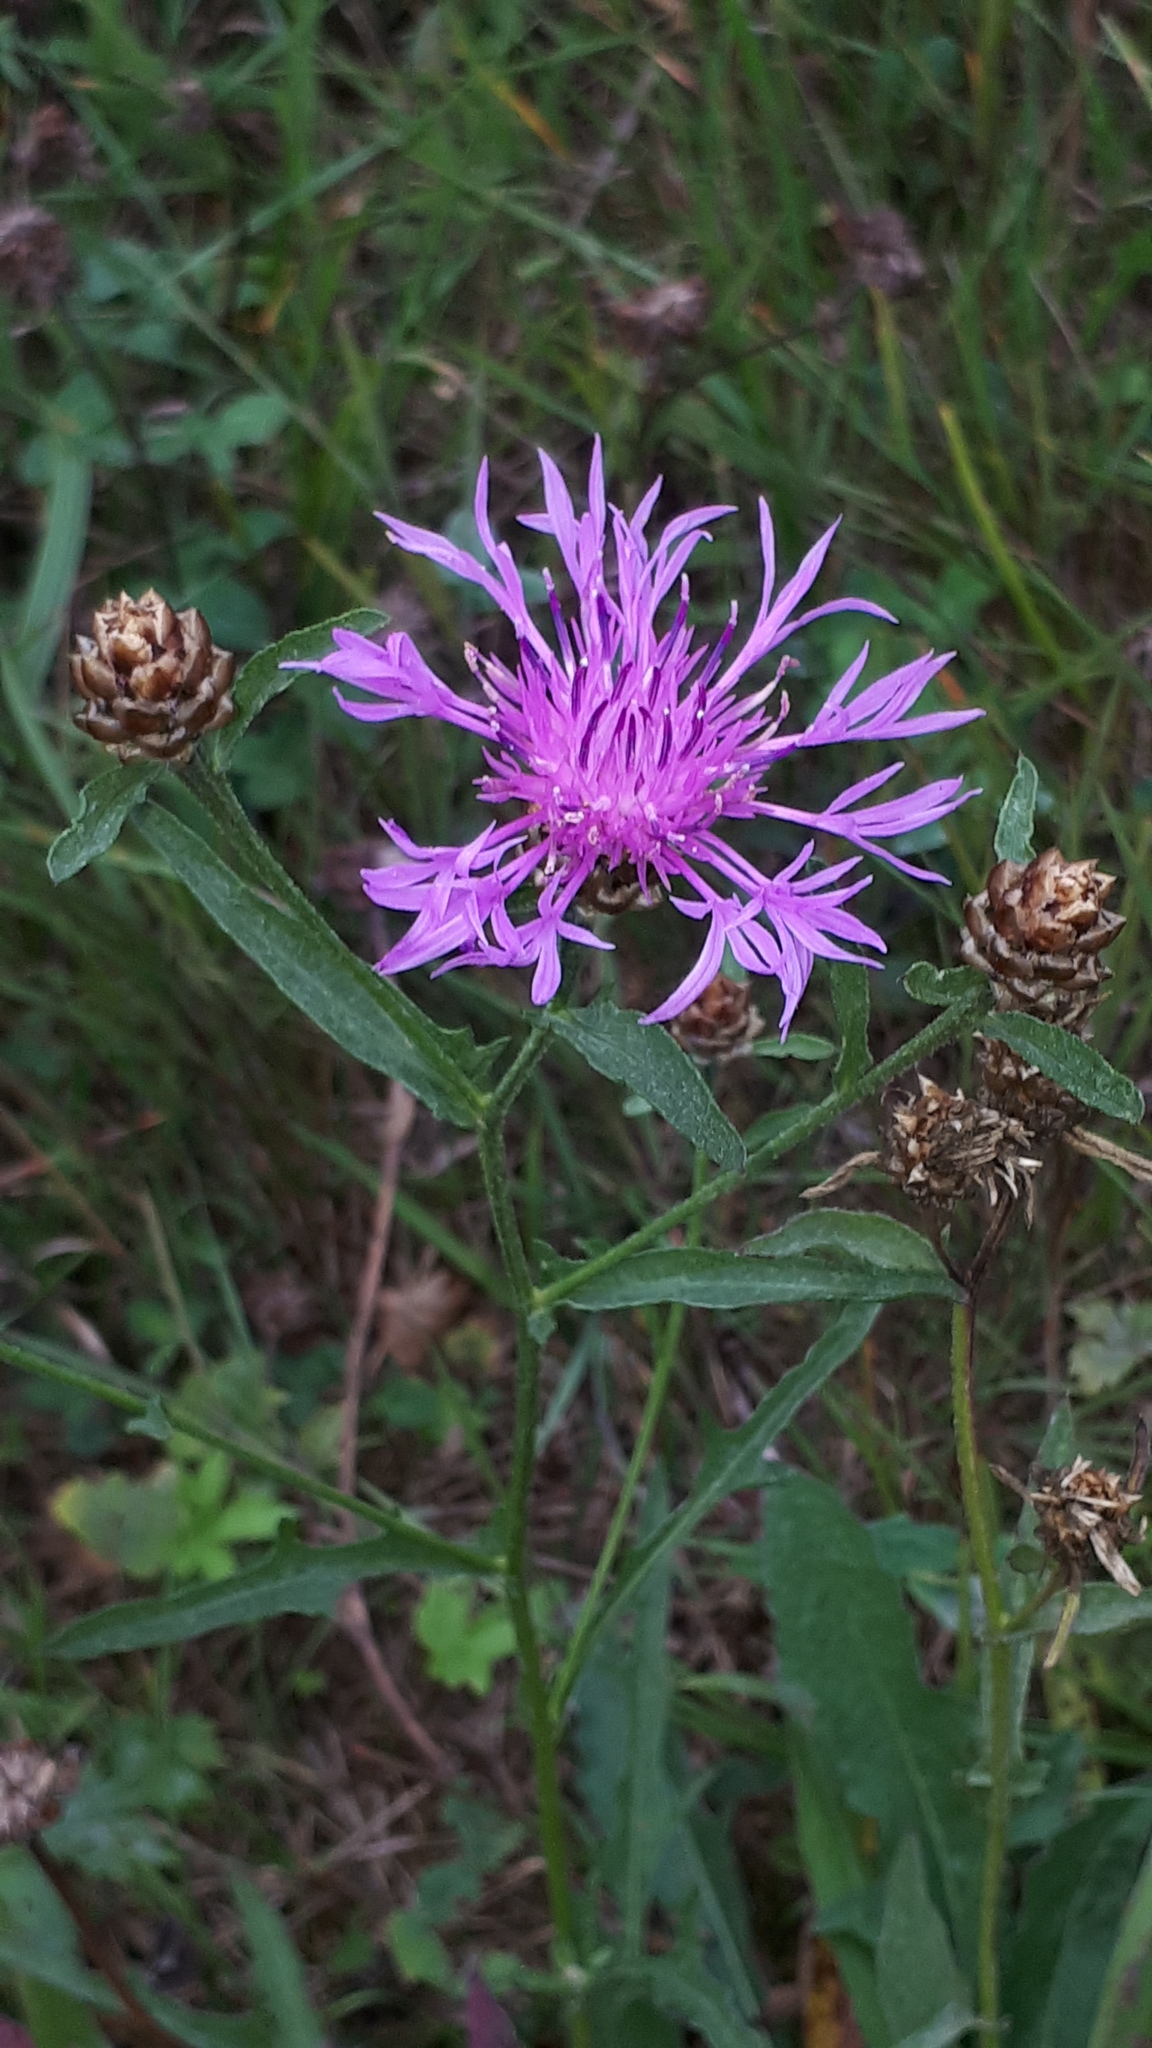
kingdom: Plantae
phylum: Tracheophyta
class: Magnoliopsida
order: Asterales
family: Asteraceae
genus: Centaurea
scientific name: Centaurea jacea
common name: Brown knapweed
